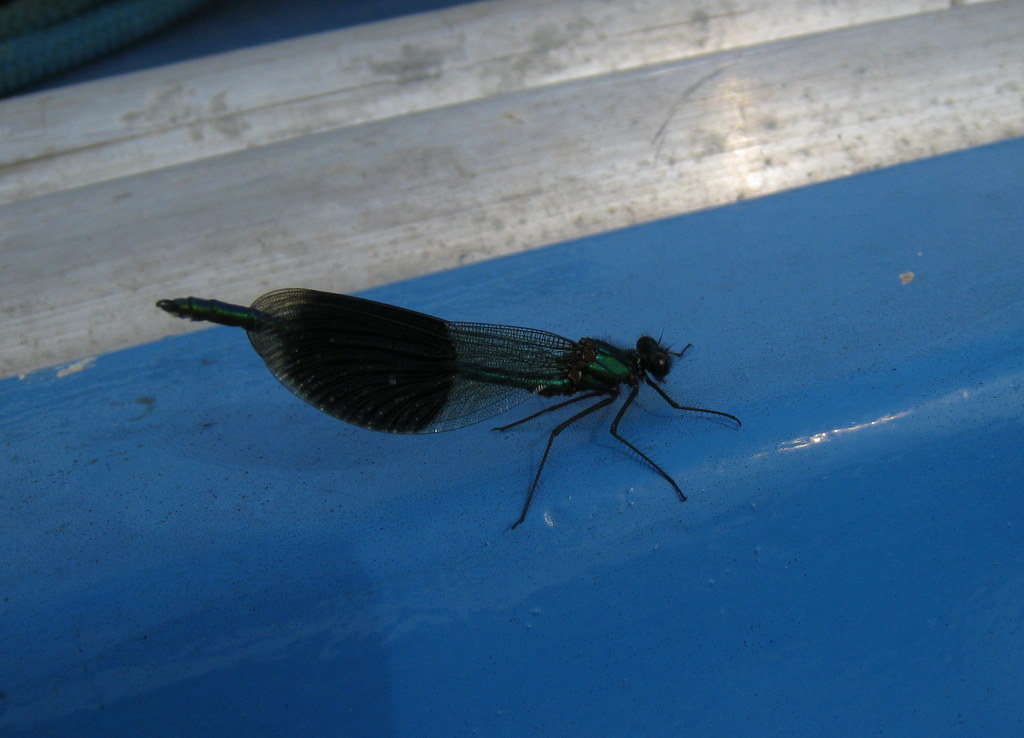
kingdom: Animalia
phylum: Arthropoda
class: Insecta
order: Odonata
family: Calopterygidae
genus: Calopteryx
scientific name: Calopteryx splendens
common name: Banded demoiselle
